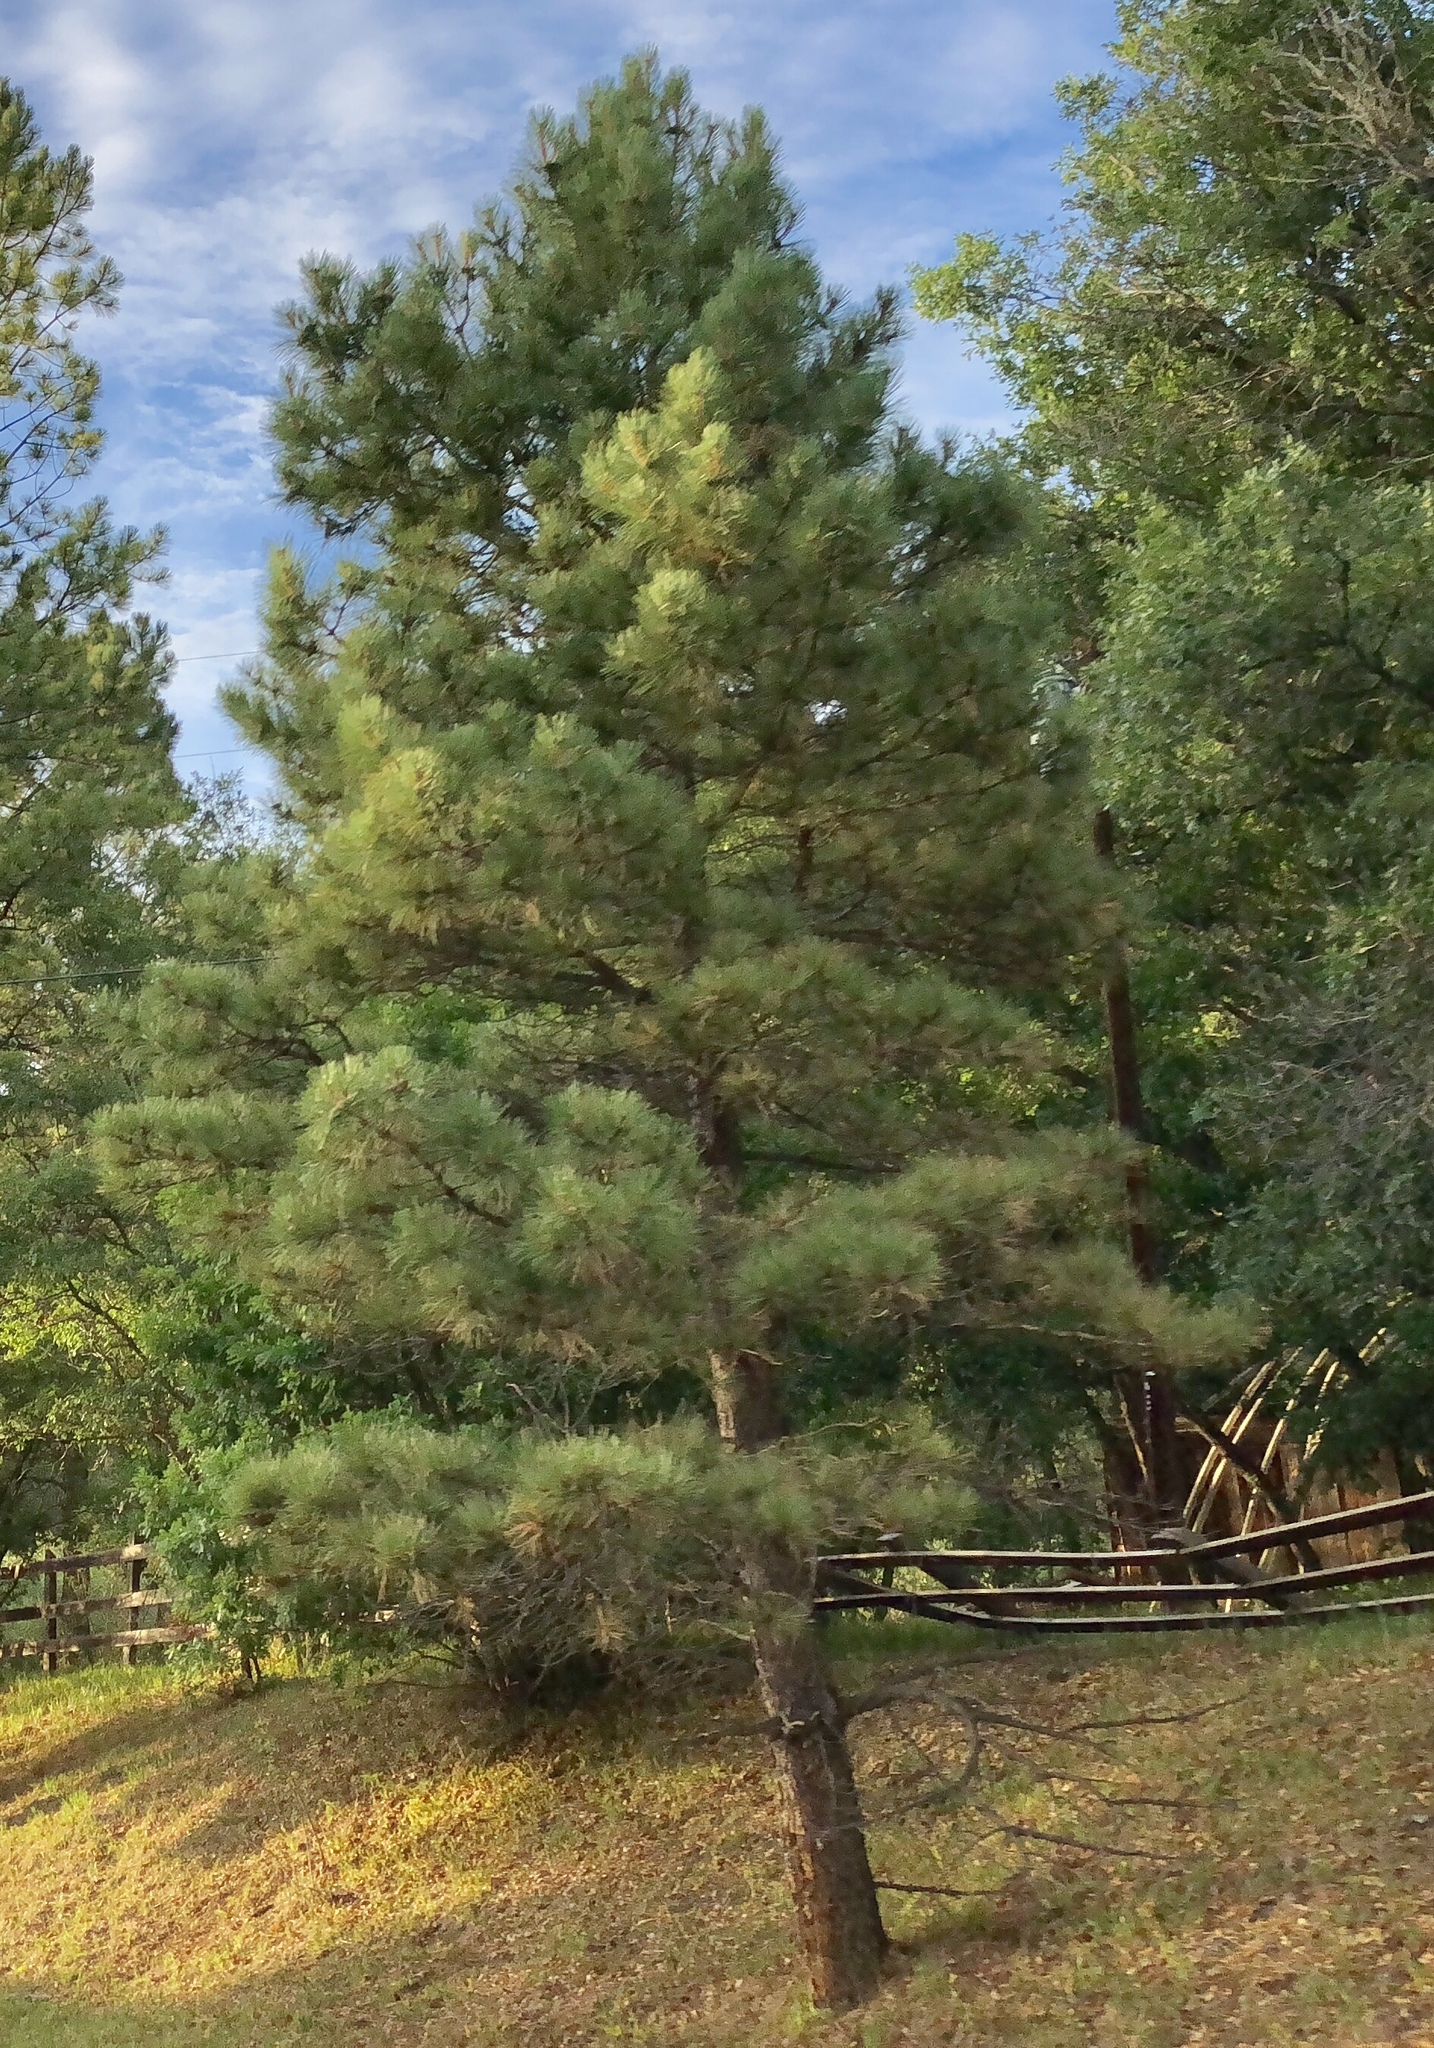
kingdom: Plantae
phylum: Tracheophyta
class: Pinopsida
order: Pinales
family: Pinaceae
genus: Pinus
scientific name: Pinus ponderosa
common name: Western yellow-pine
